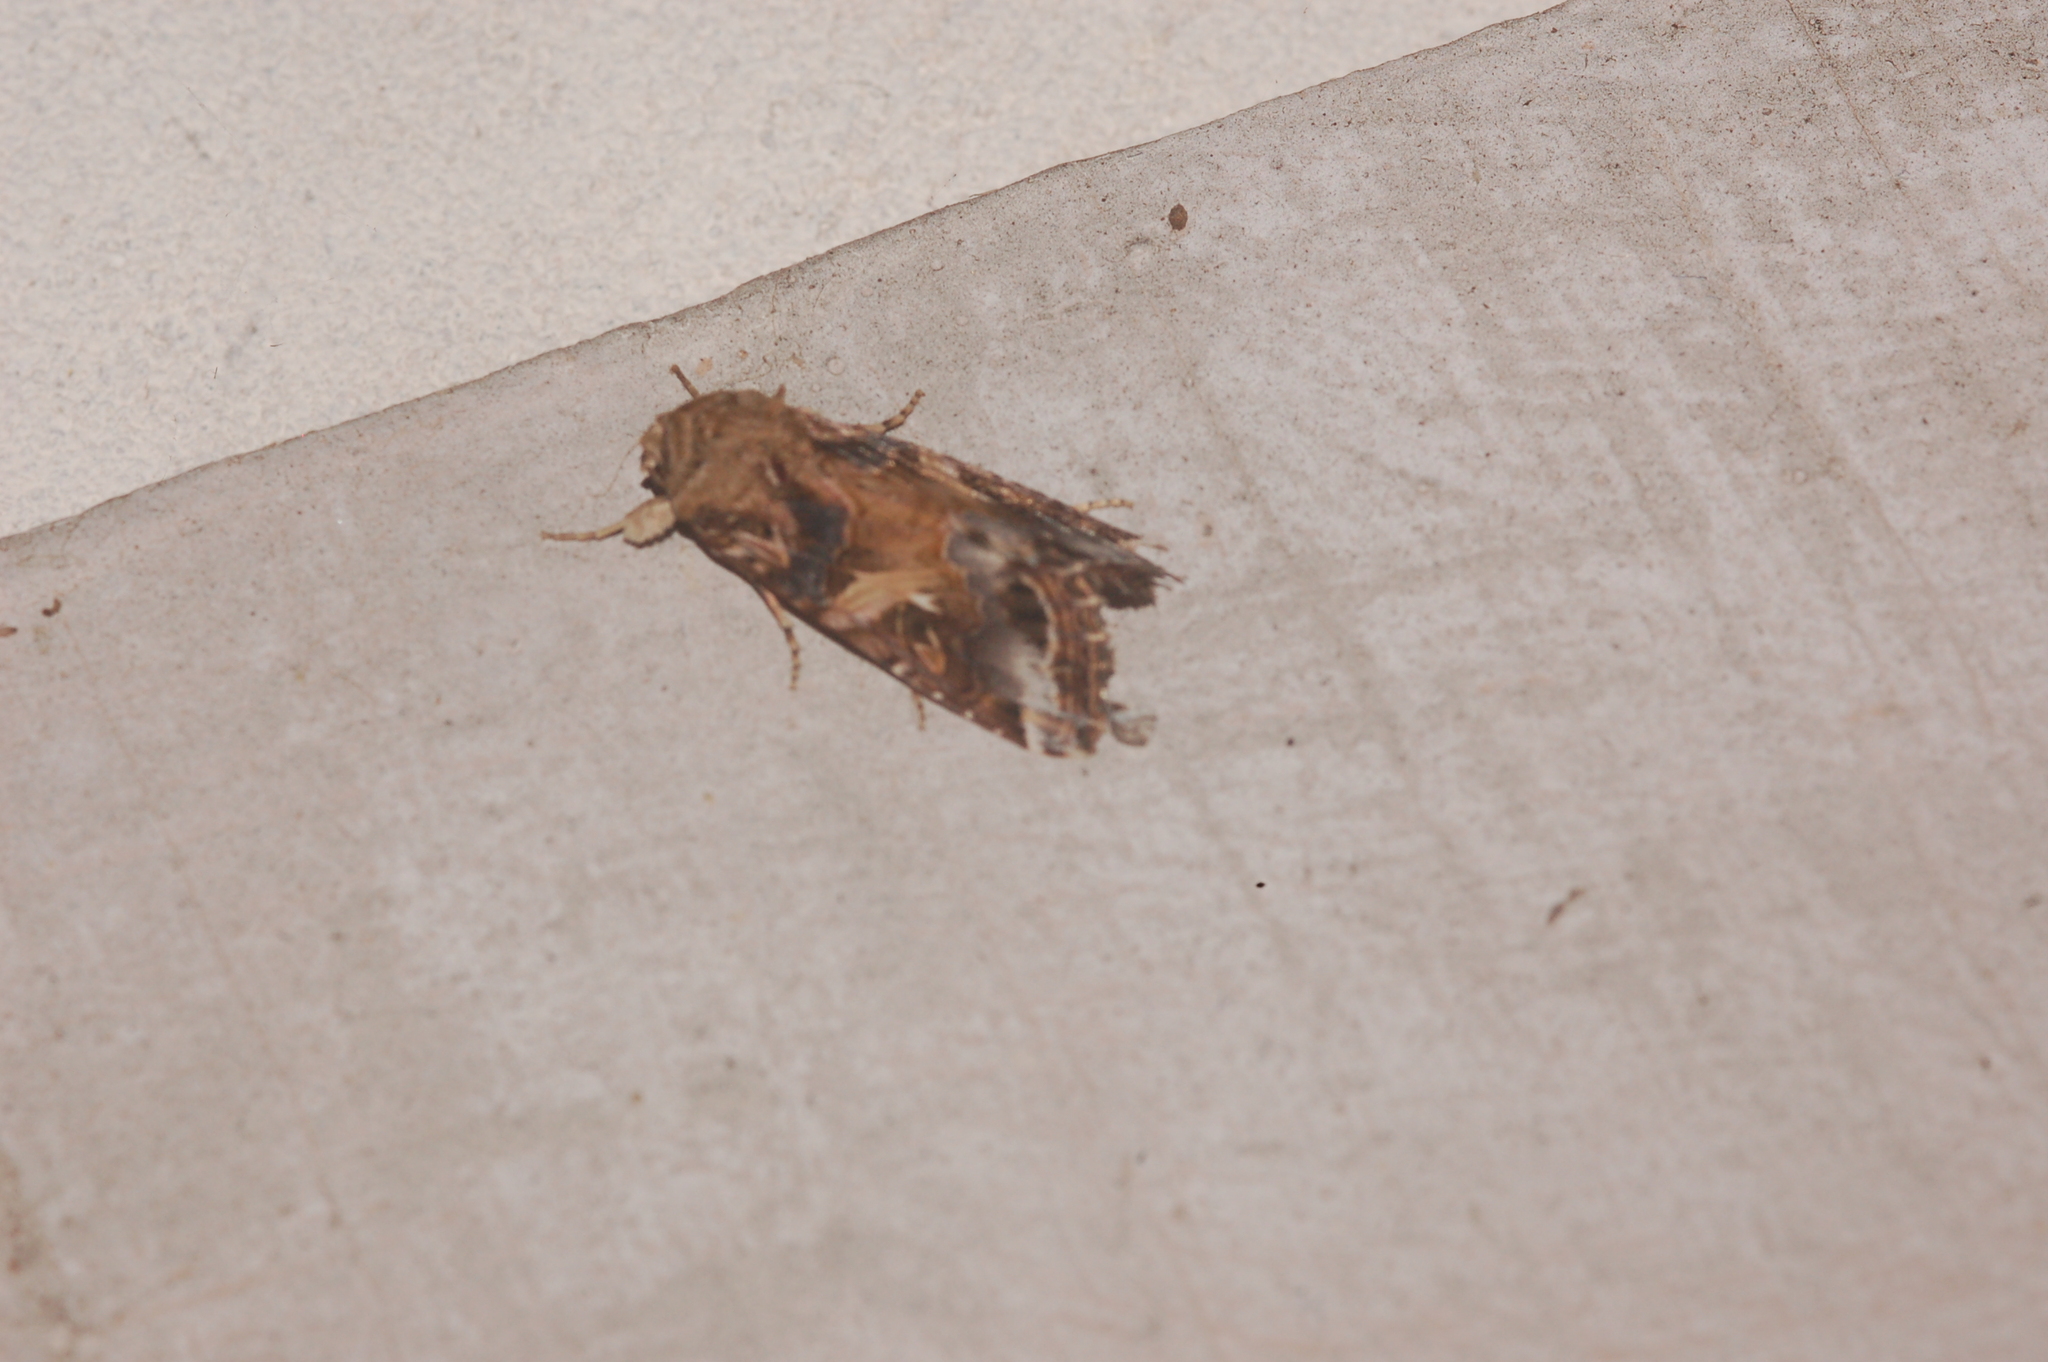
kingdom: Animalia
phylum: Arthropoda
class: Insecta
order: Lepidoptera
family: Noctuidae
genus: Spodoptera
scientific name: Spodoptera ornithogalli
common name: Yellow-striped armyworm
